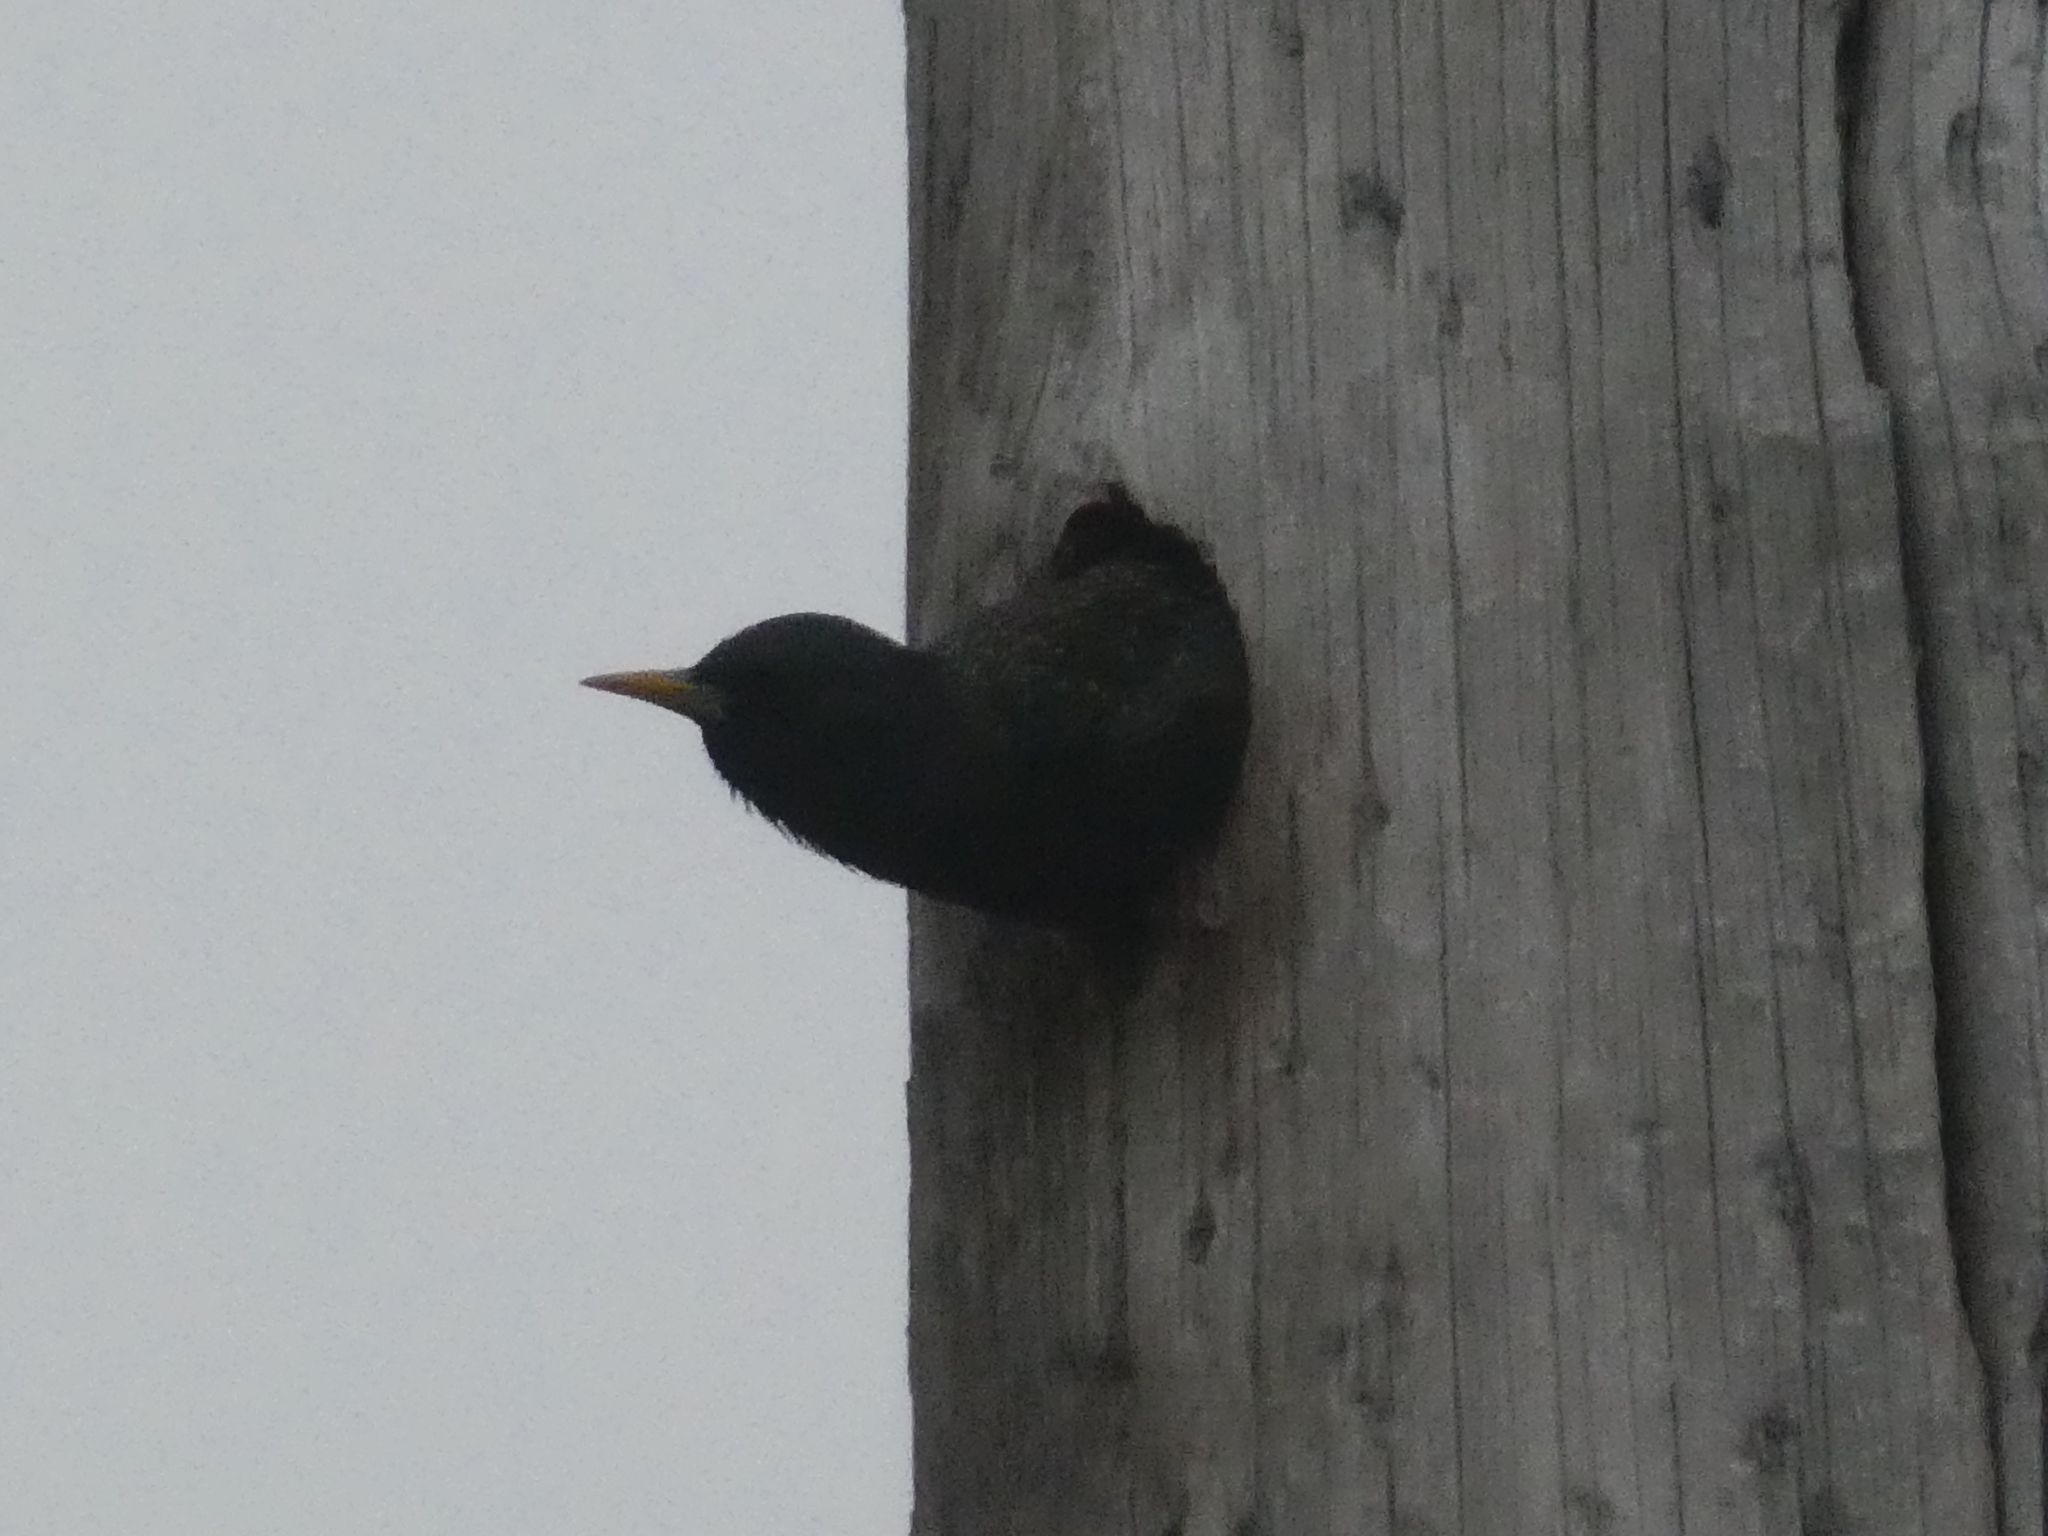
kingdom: Animalia
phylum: Chordata
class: Aves
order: Passeriformes
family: Sturnidae
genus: Sturnus
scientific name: Sturnus vulgaris
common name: Common starling
